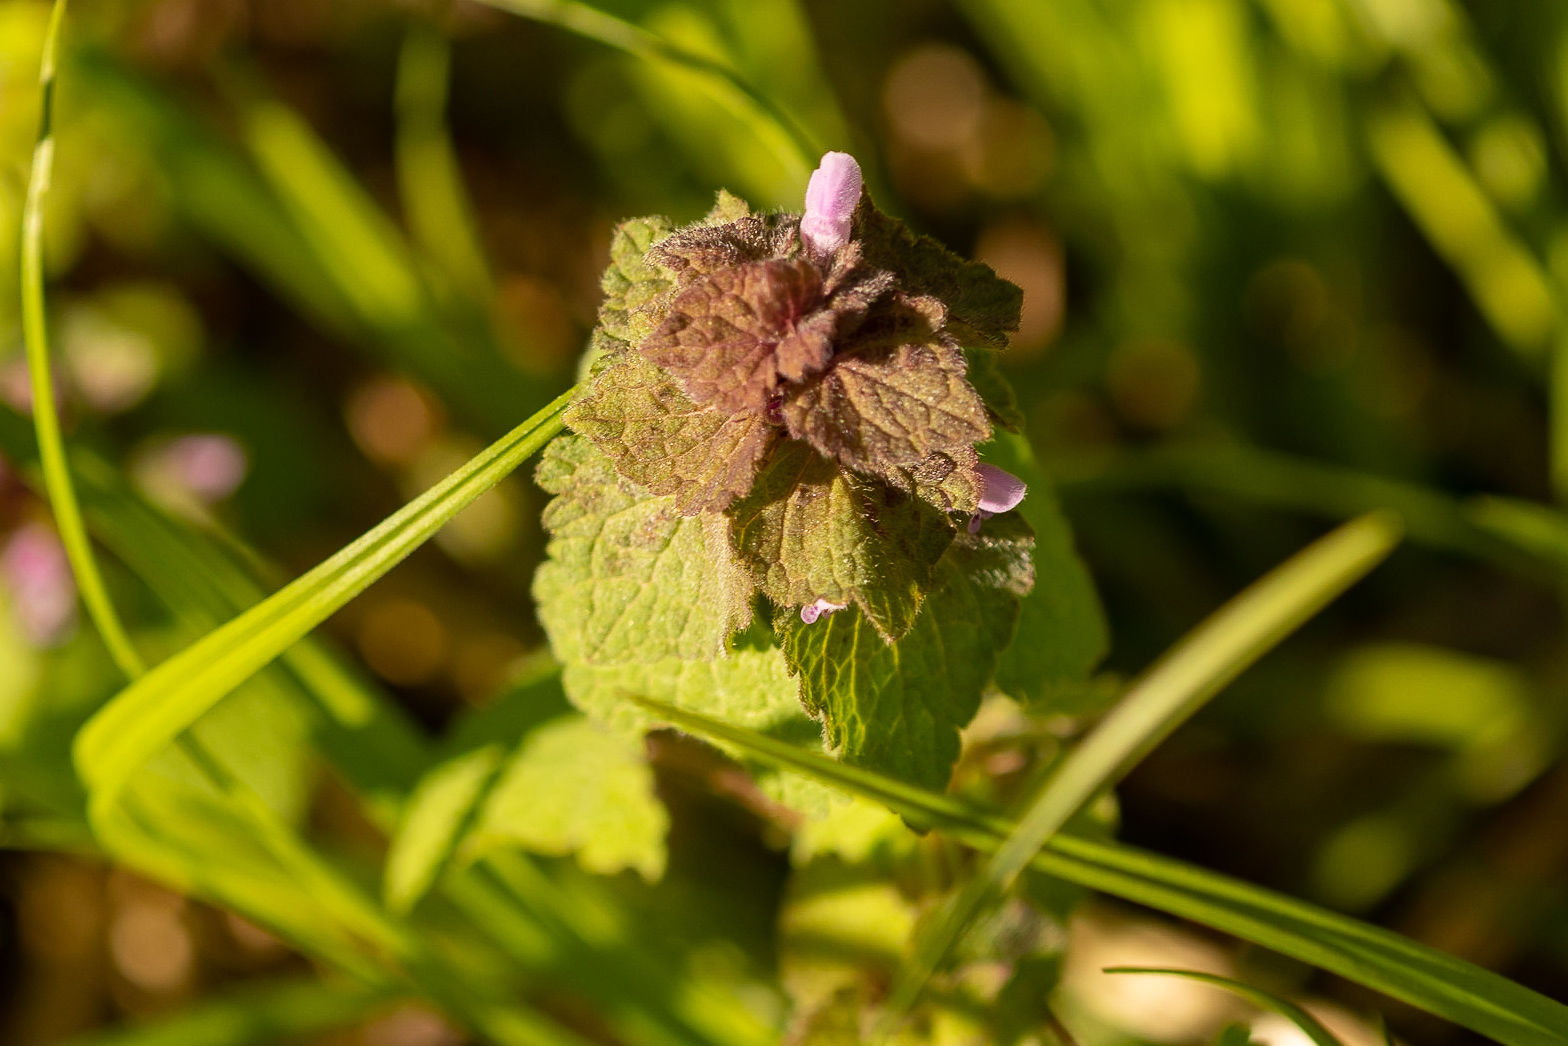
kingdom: Plantae
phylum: Tracheophyta
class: Magnoliopsida
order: Lamiales
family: Lamiaceae
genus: Lamium
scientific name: Lamium purpureum
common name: Red dead-nettle
